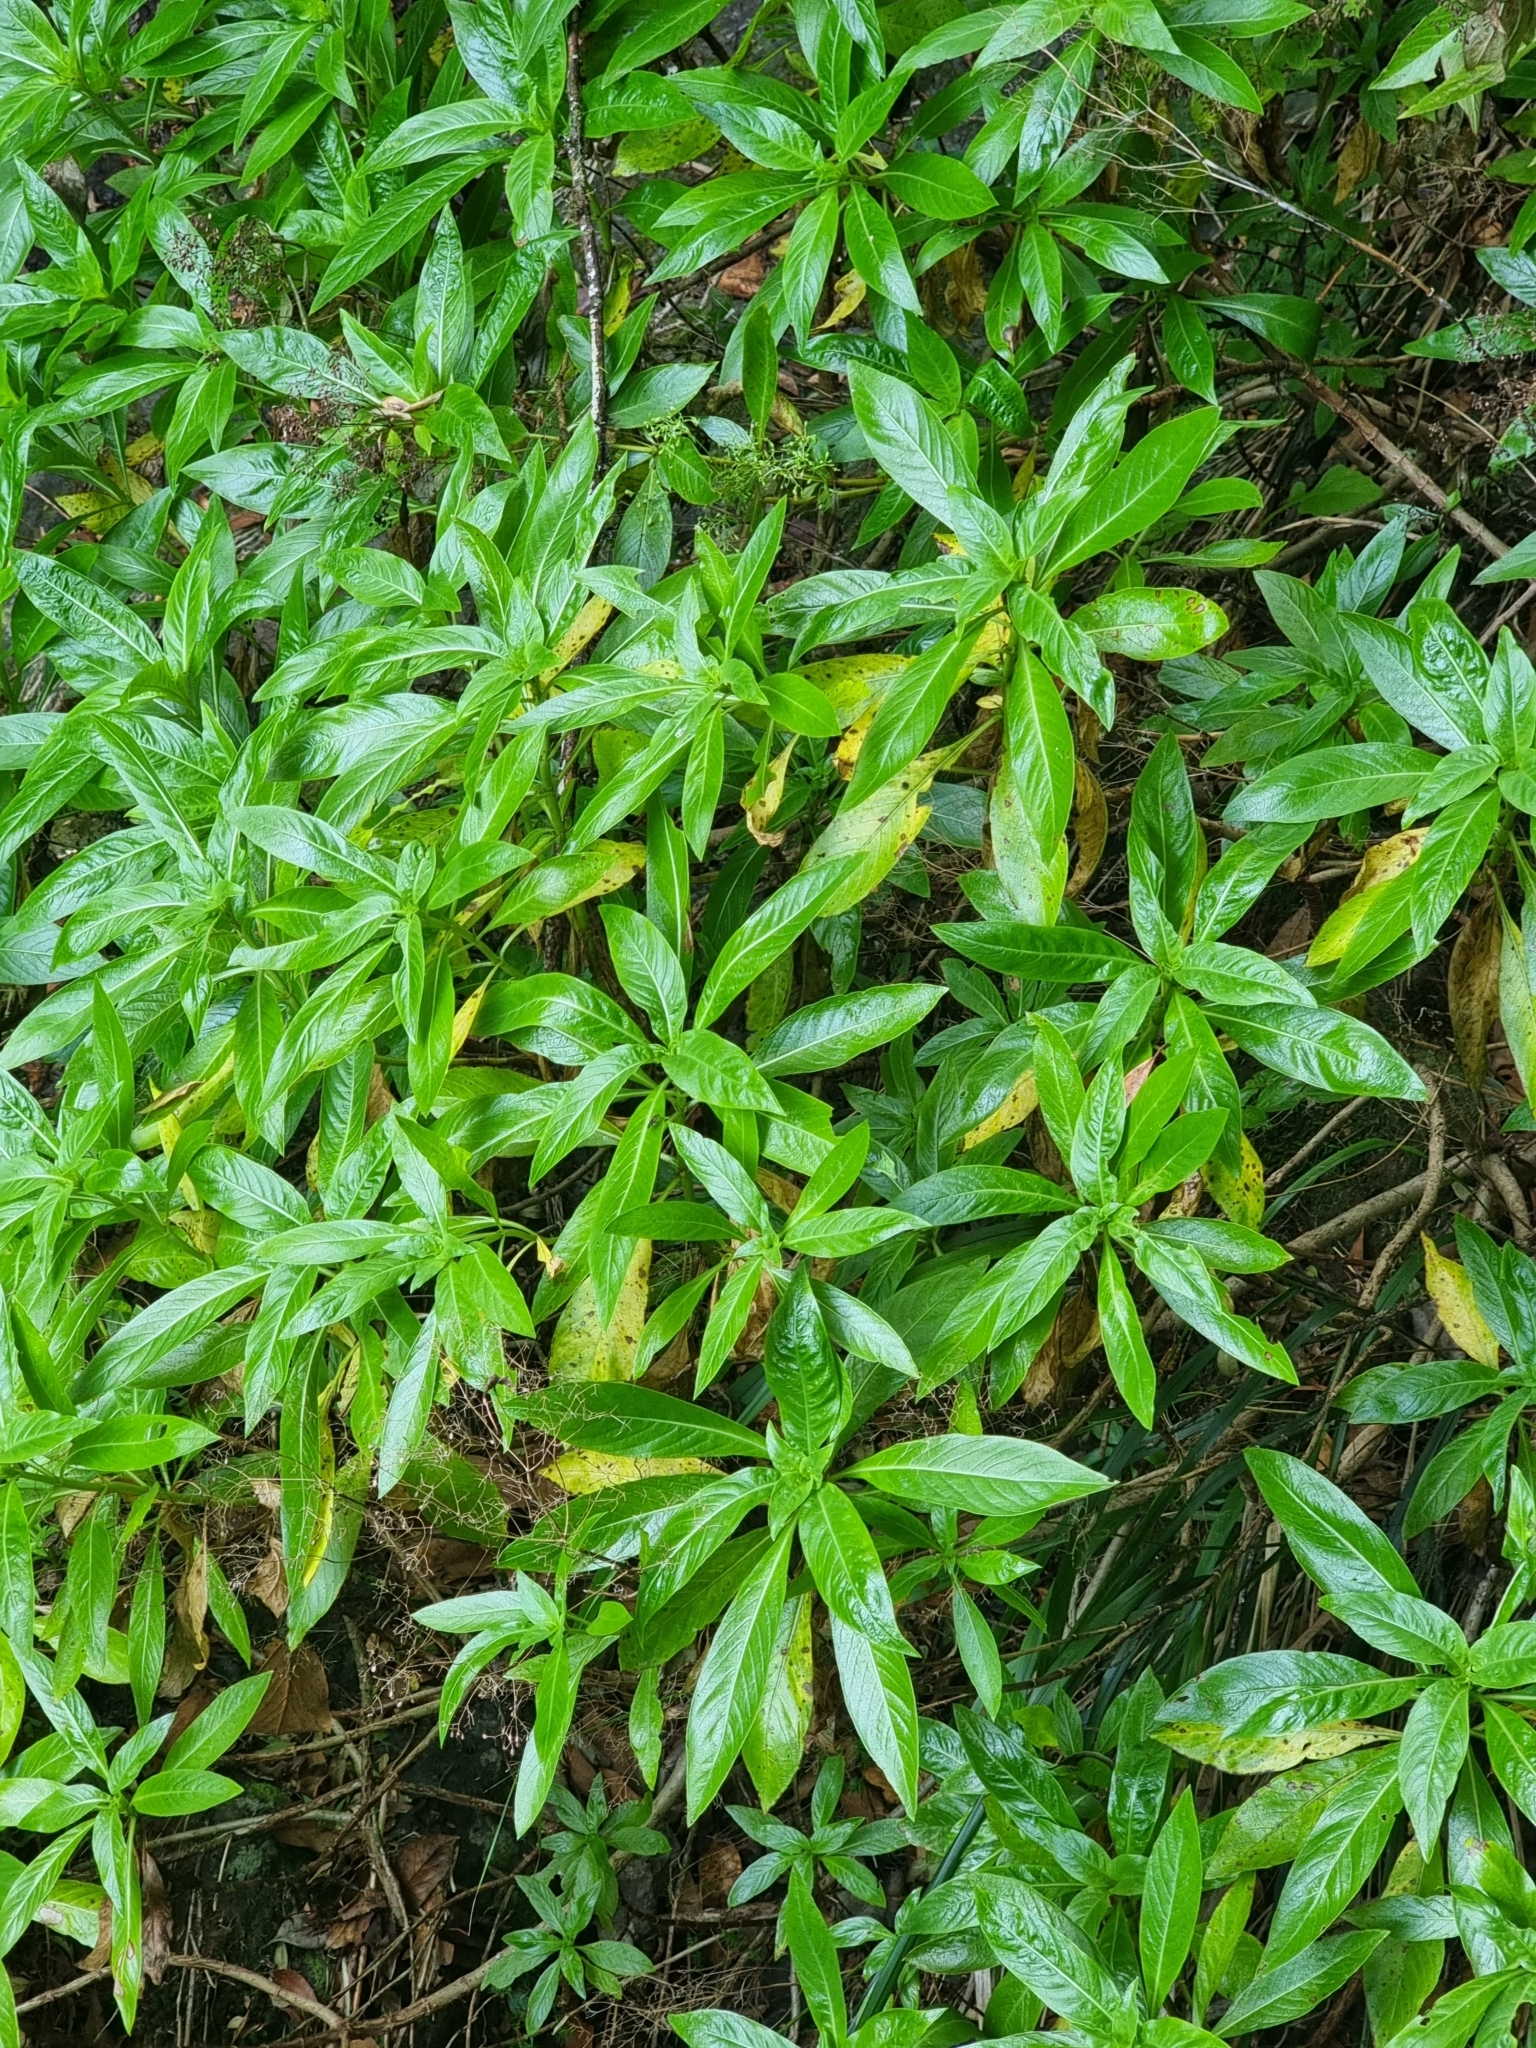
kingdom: Plantae
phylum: Tracheophyta
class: Magnoliopsida
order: Gentianales
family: Rubiaceae
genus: Phyllis
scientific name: Phyllis nobla
